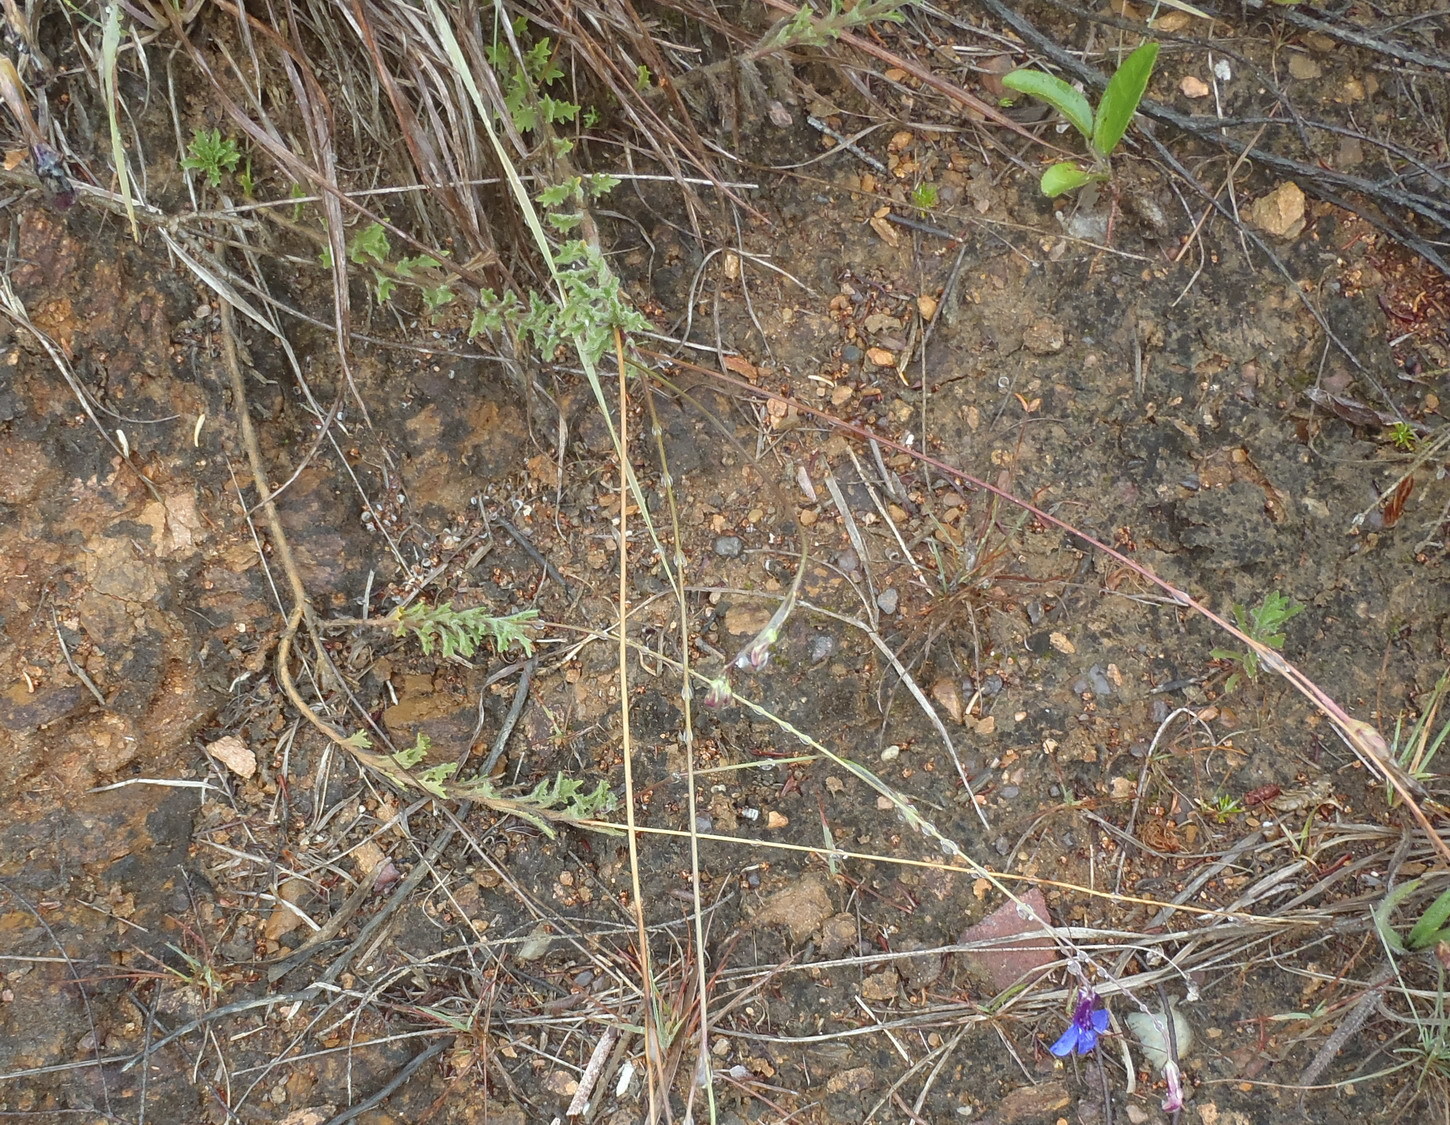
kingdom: Plantae
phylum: Tracheophyta
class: Magnoliopsida
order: Asterales
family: Campanulaceae
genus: Lobelia
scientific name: Lobelia tomentosa
